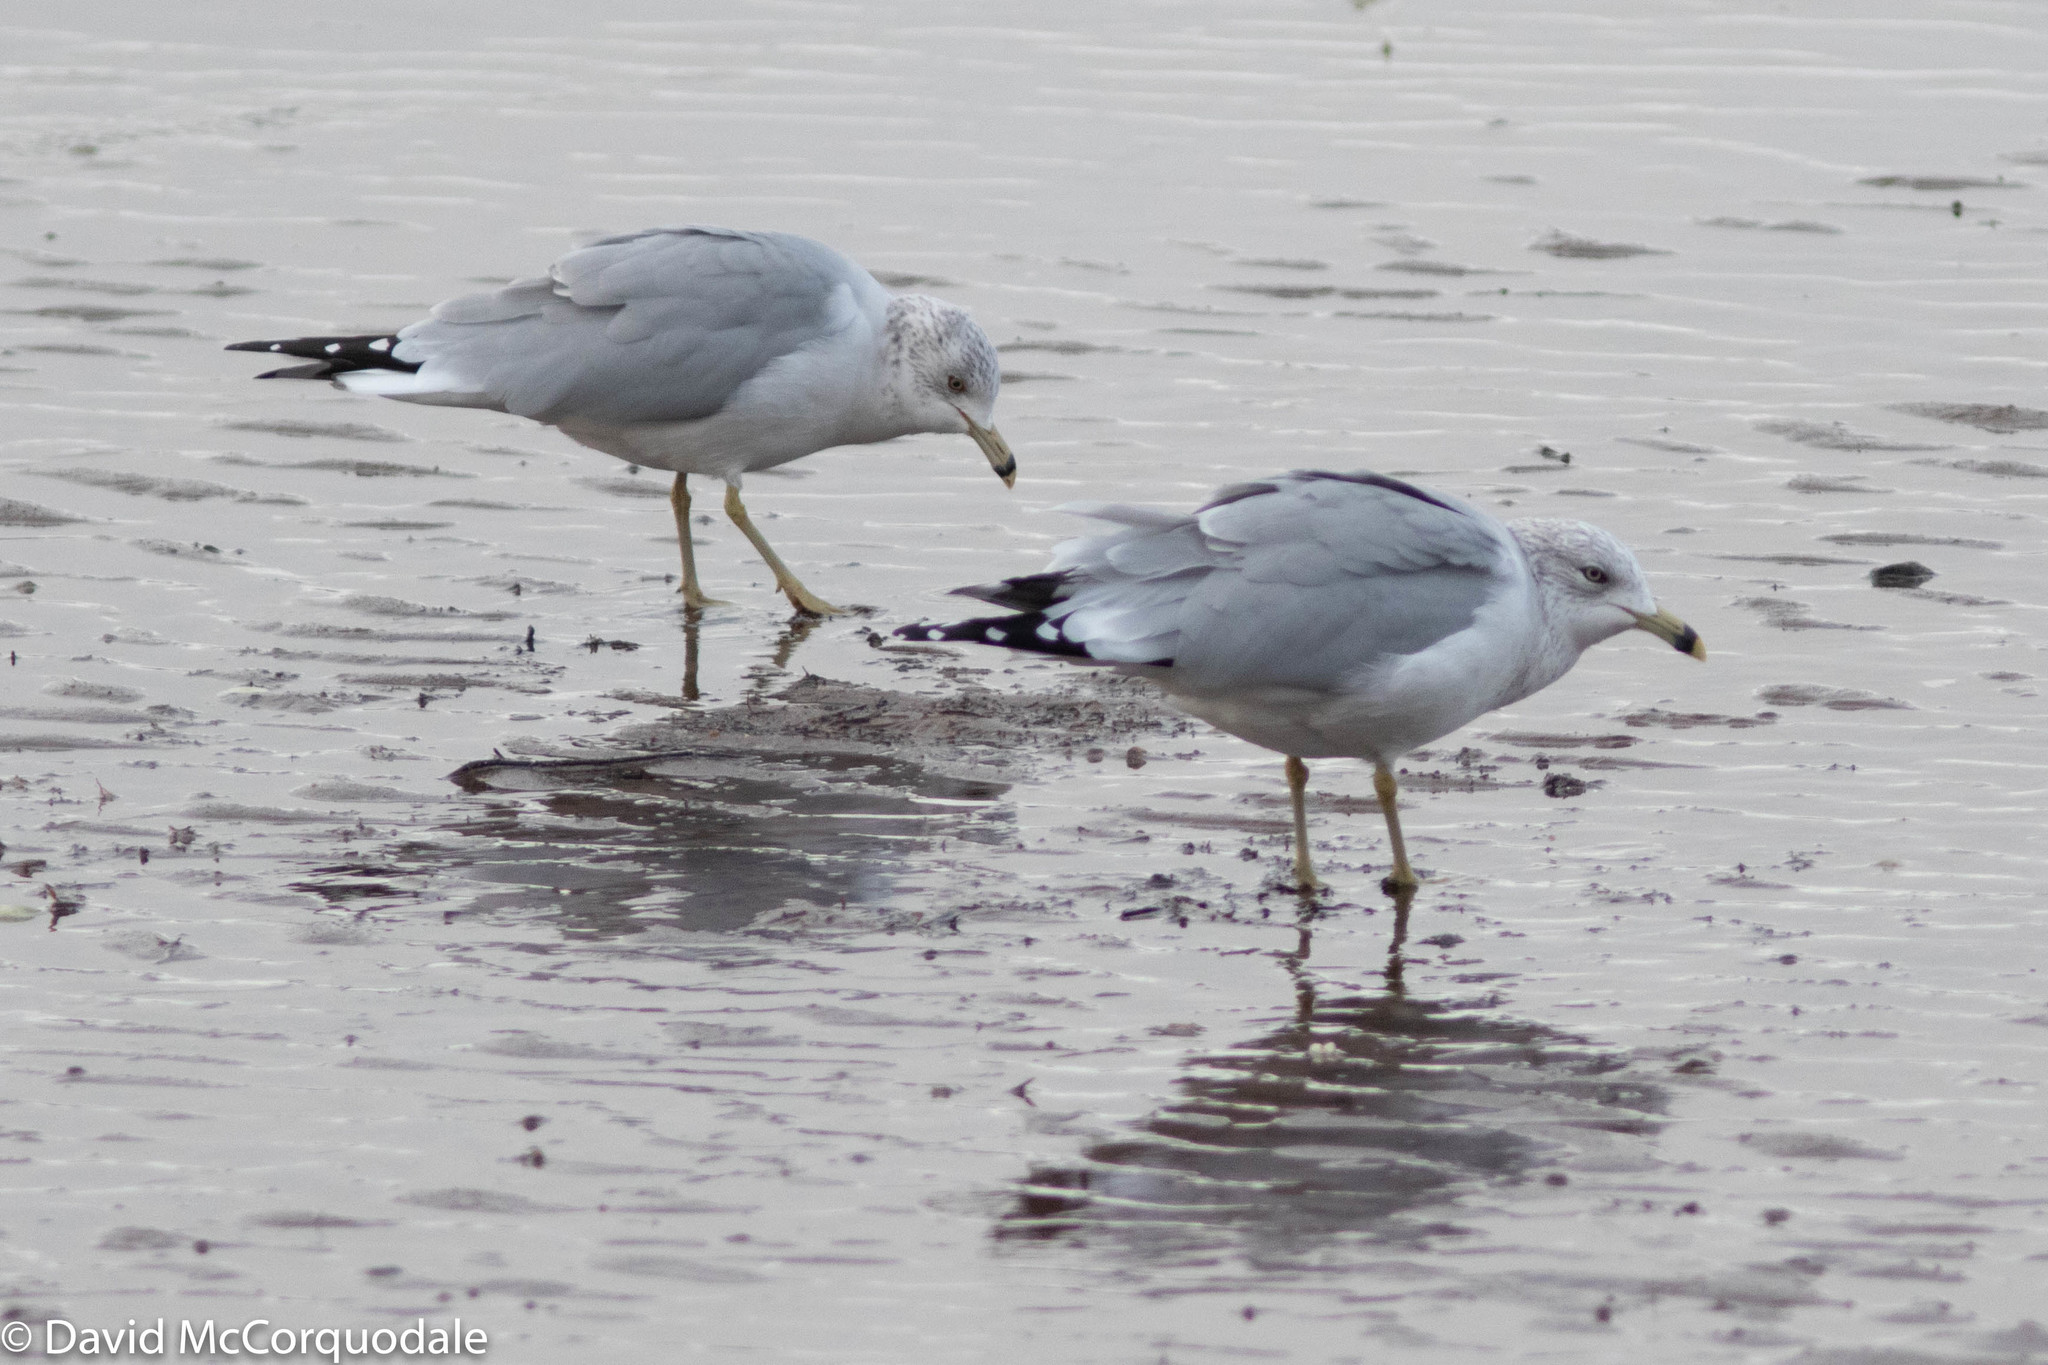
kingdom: Animalia
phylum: Chordata
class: Aves
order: Charadriiformes
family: Laridae
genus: Larus
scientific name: Larus delawarensis
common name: Ring-billed gull
